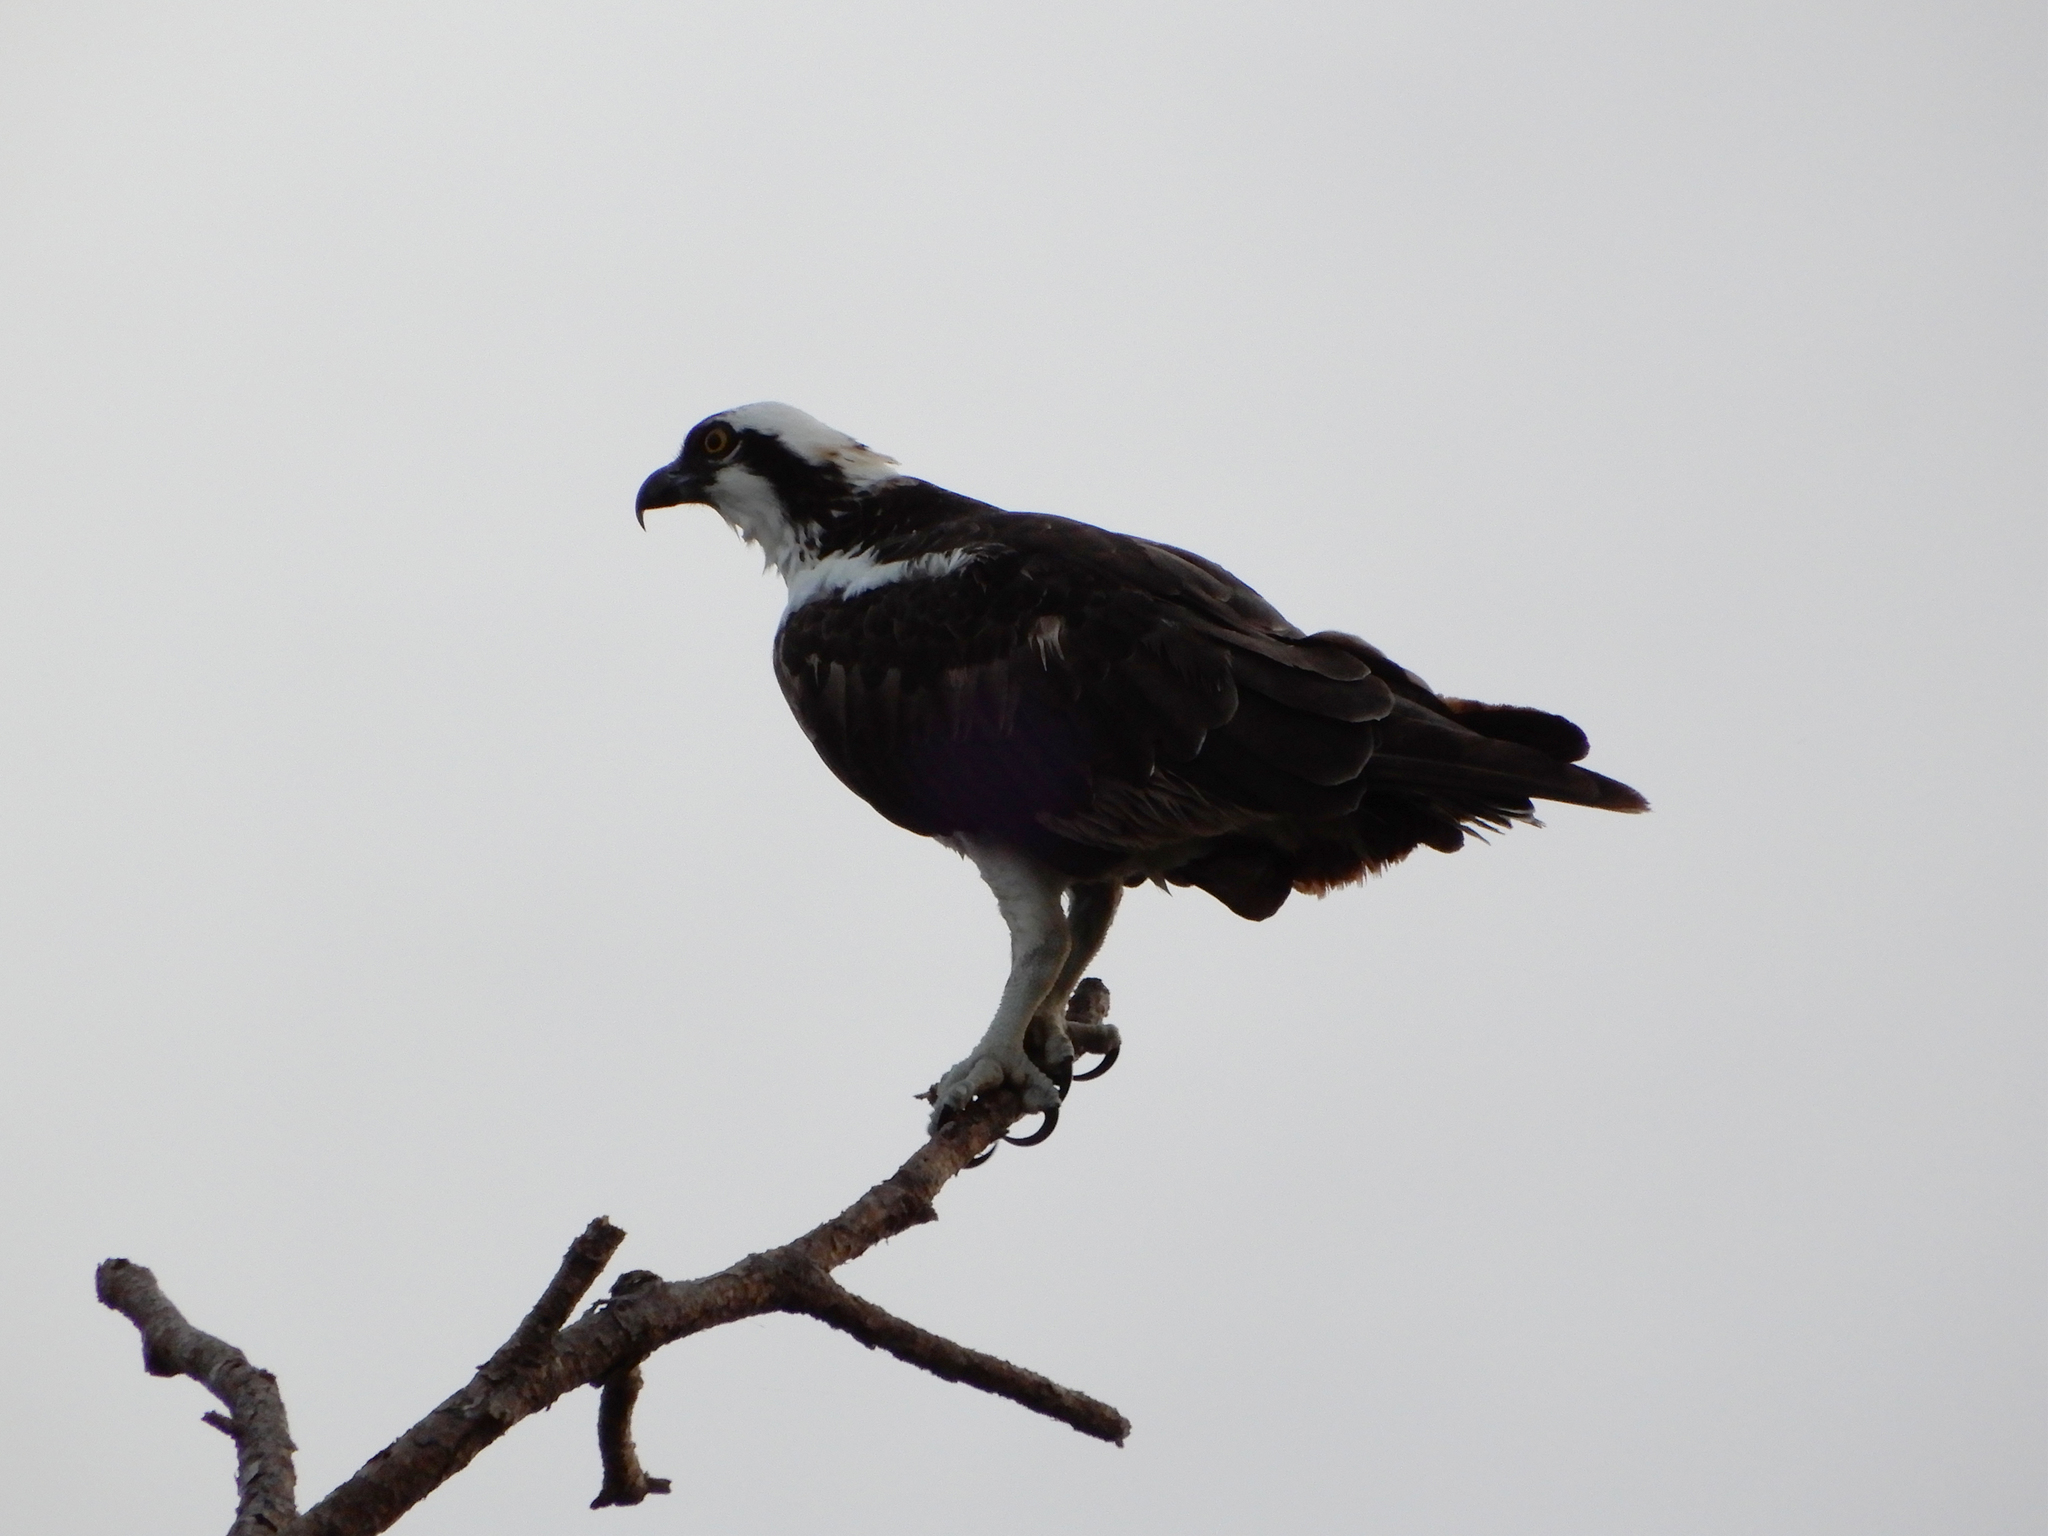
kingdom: Animalia
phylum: Chordata
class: Aves
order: Accipitriformes
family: Pandionidae
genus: Pandion
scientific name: Pandion haliaetus
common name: Osprey
